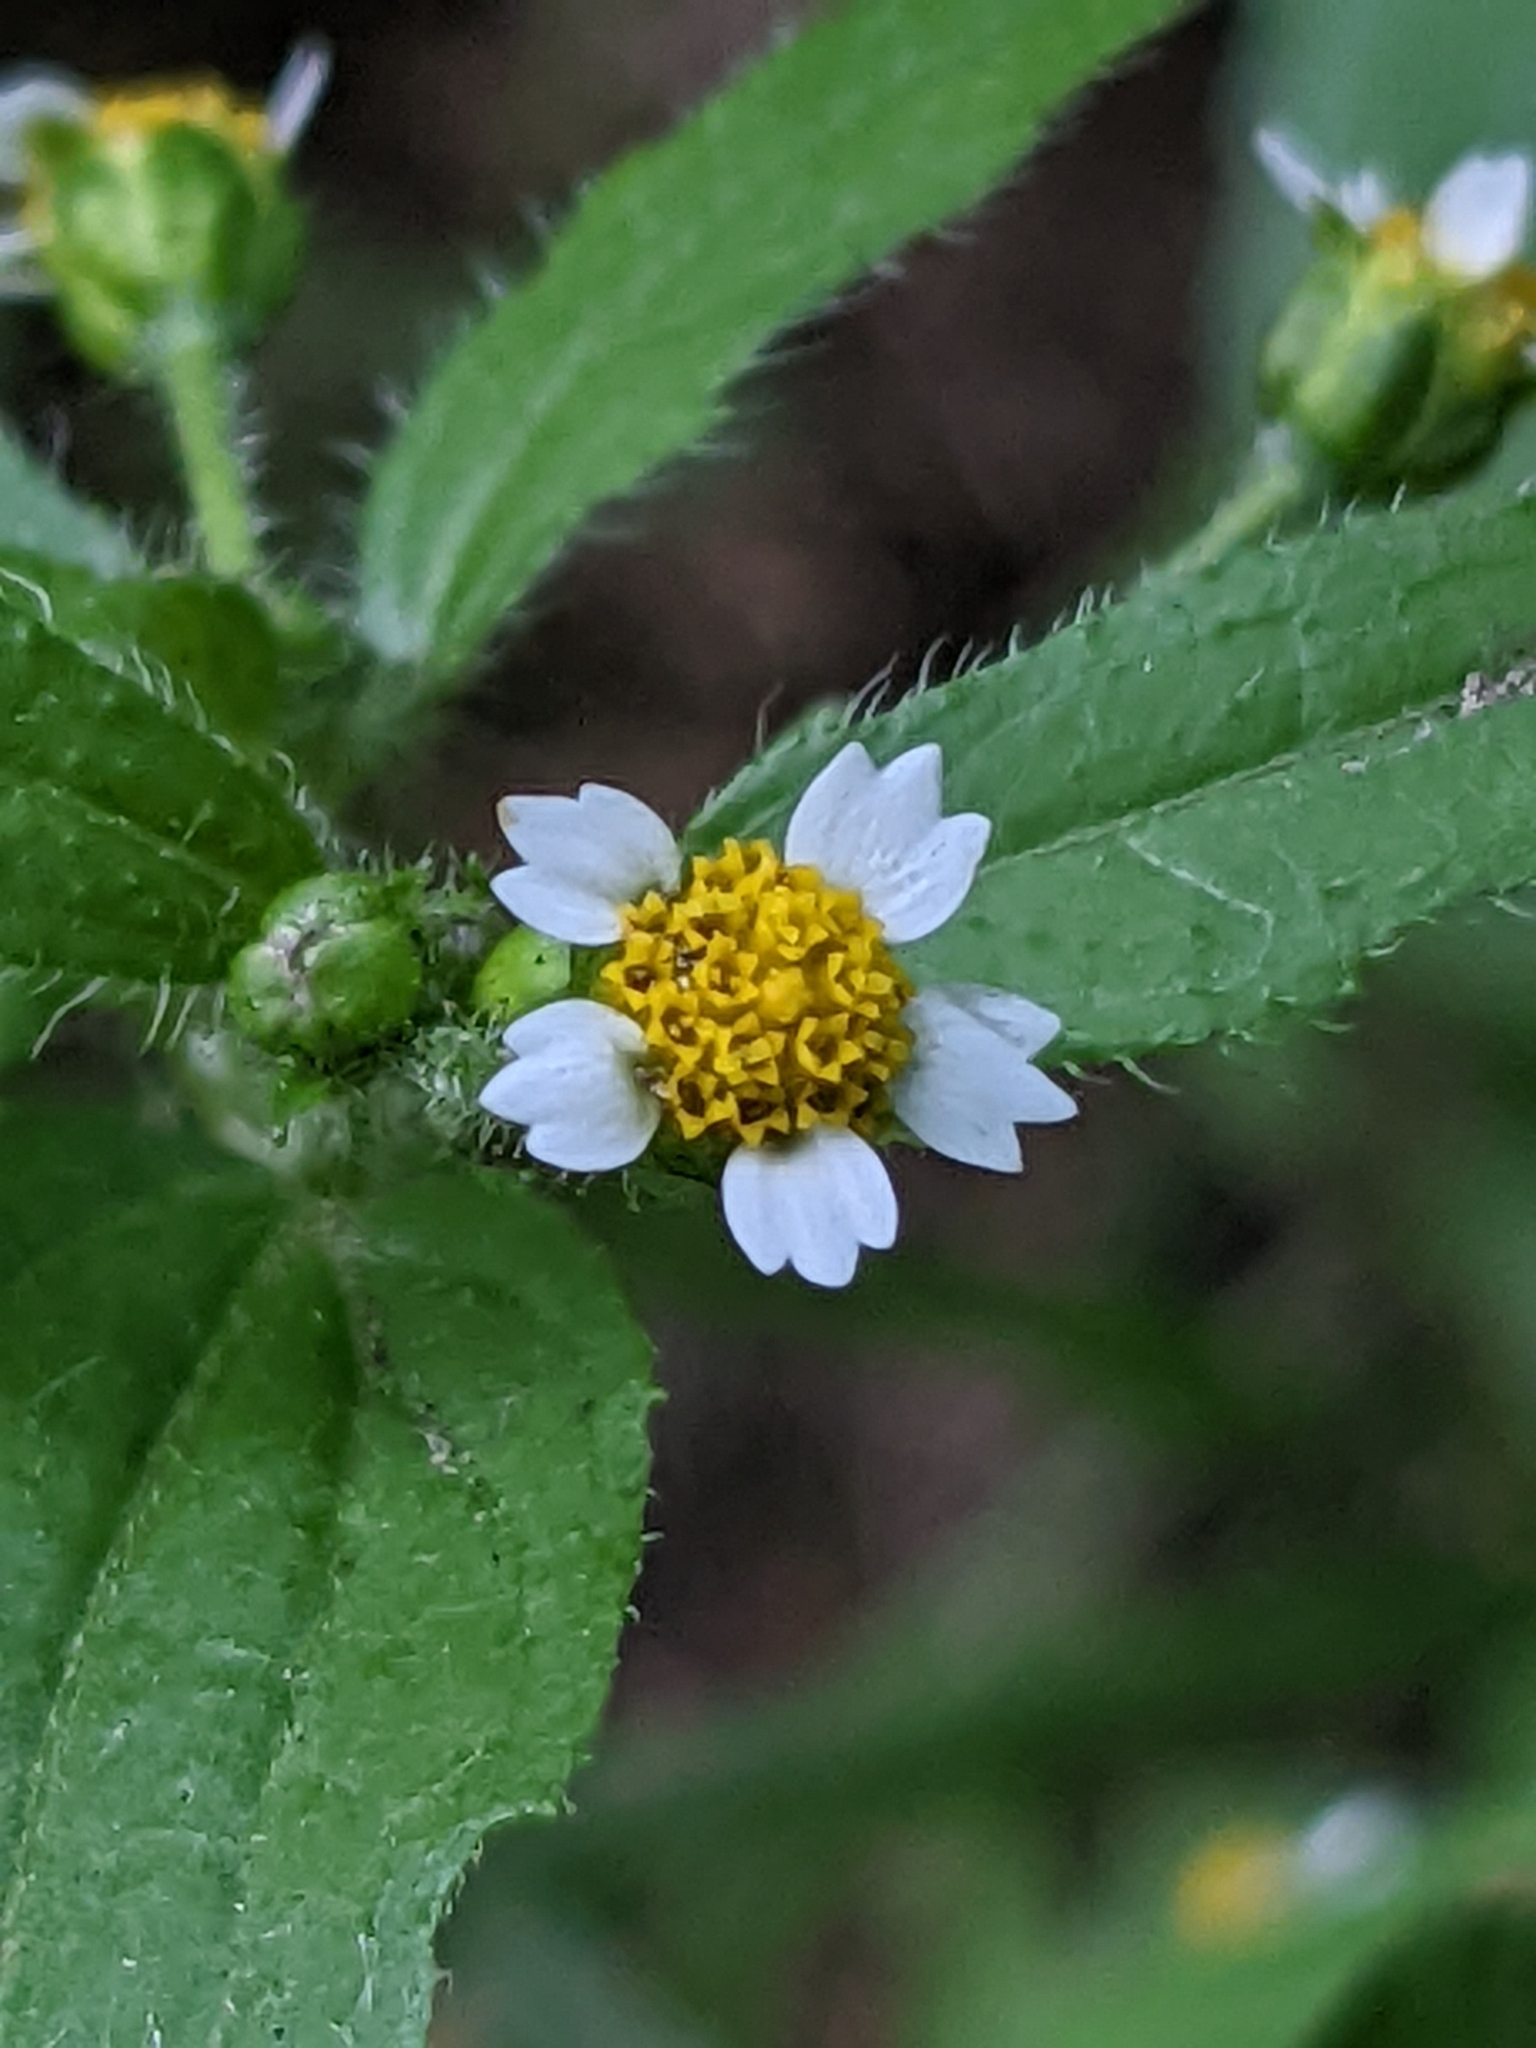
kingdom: Plantae
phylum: Tracheophyta
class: Magnoliopsida
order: Asterales
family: Asteraceae
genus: Galinsoga
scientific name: Galinsoga quadriradiata
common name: Shaggy soldier
